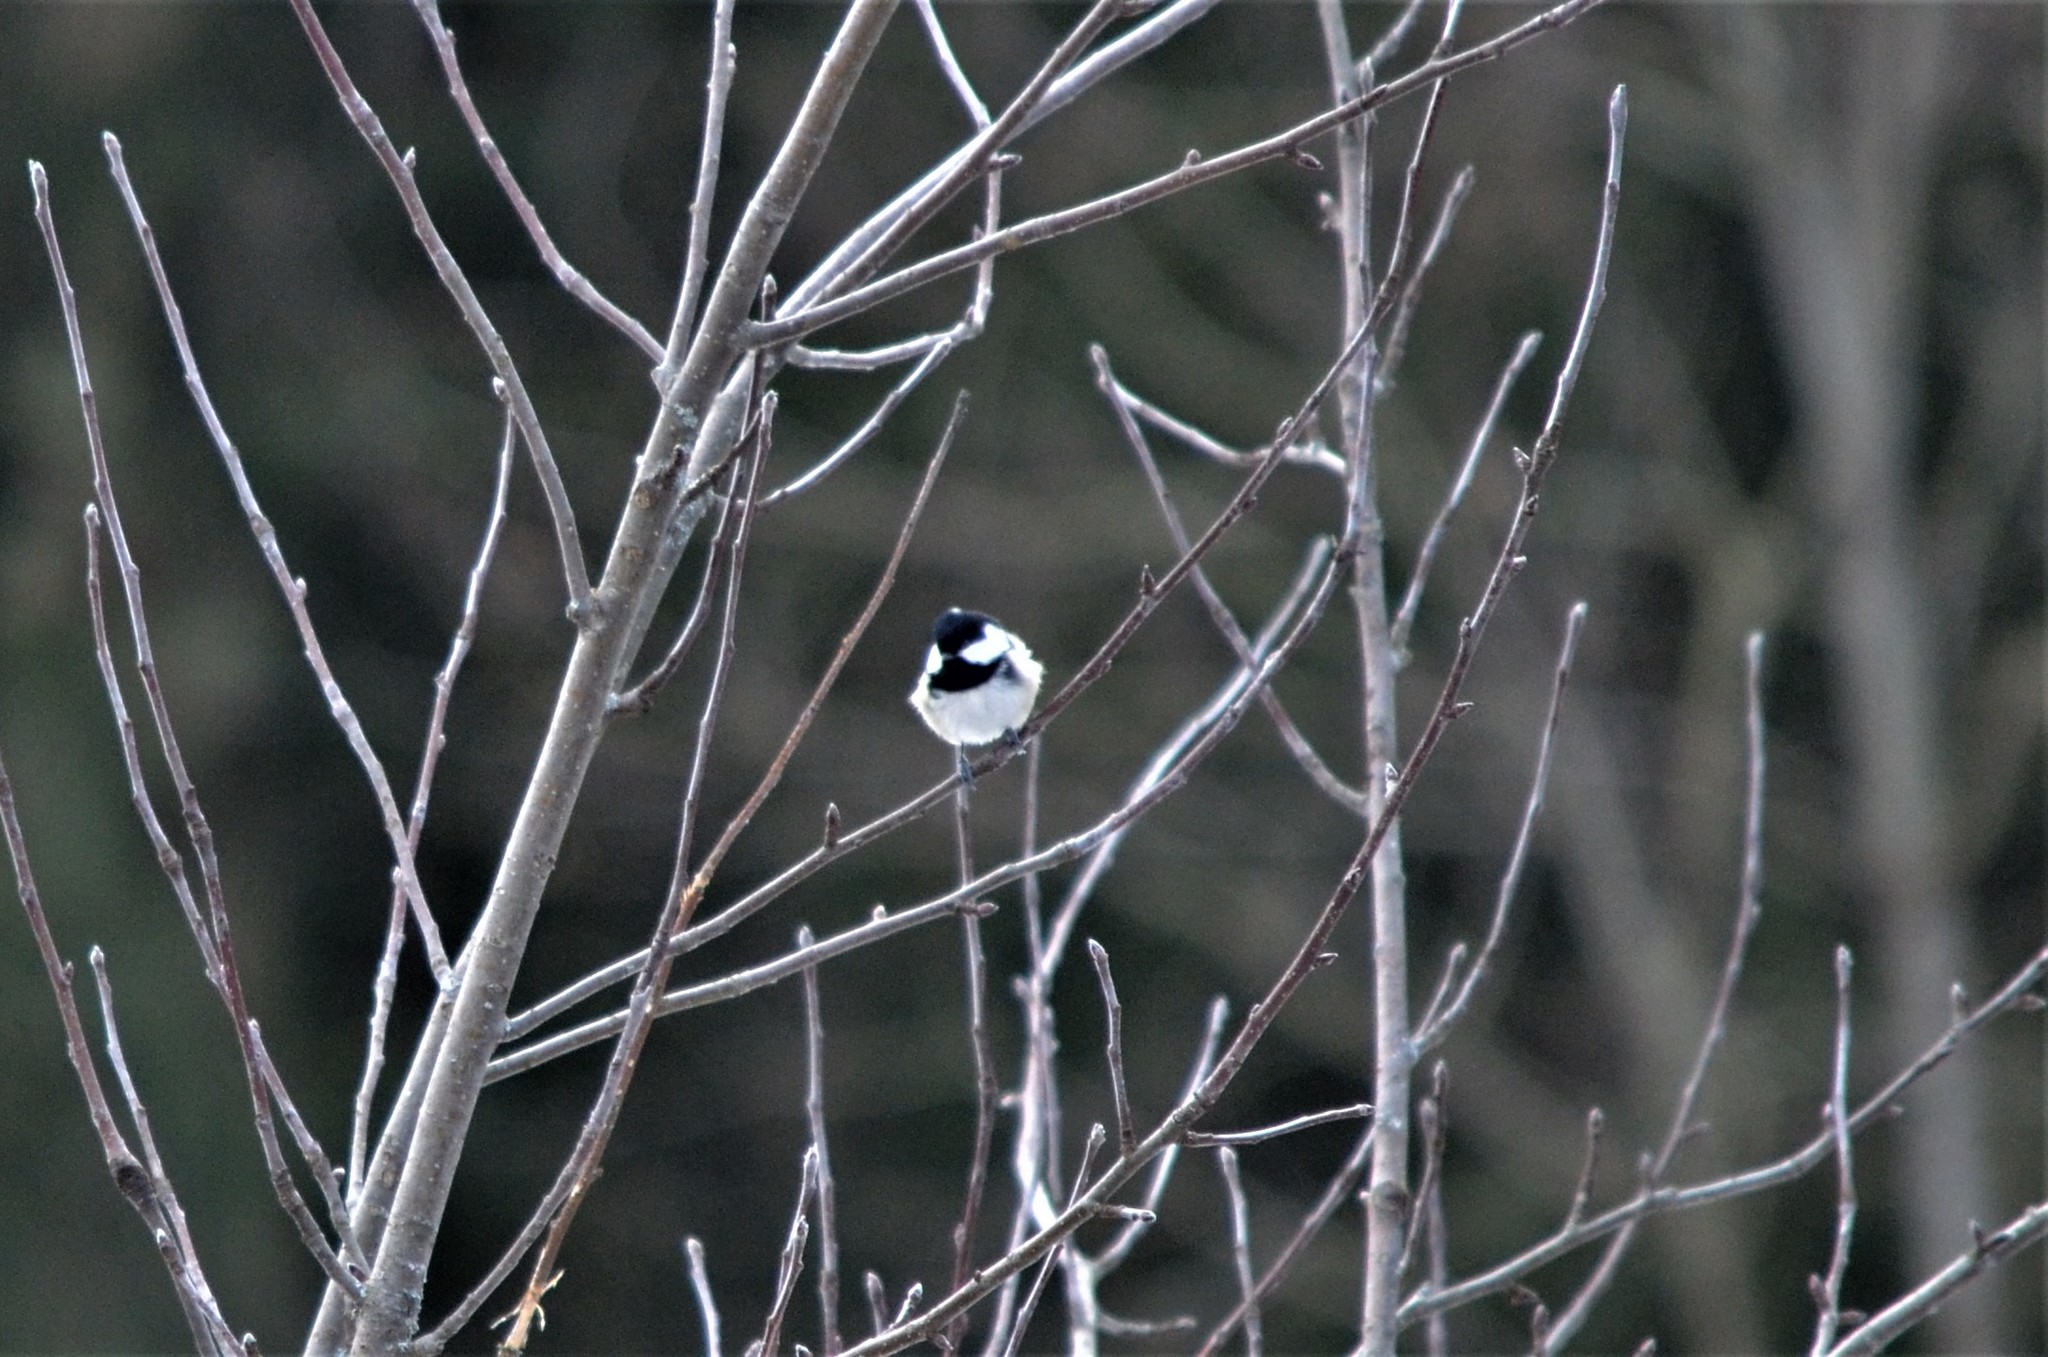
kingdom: Animalia
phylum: Chordata
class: Aves
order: Passeriformes
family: Paridae
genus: Periparus
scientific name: Periparus ater
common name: Coal tit
